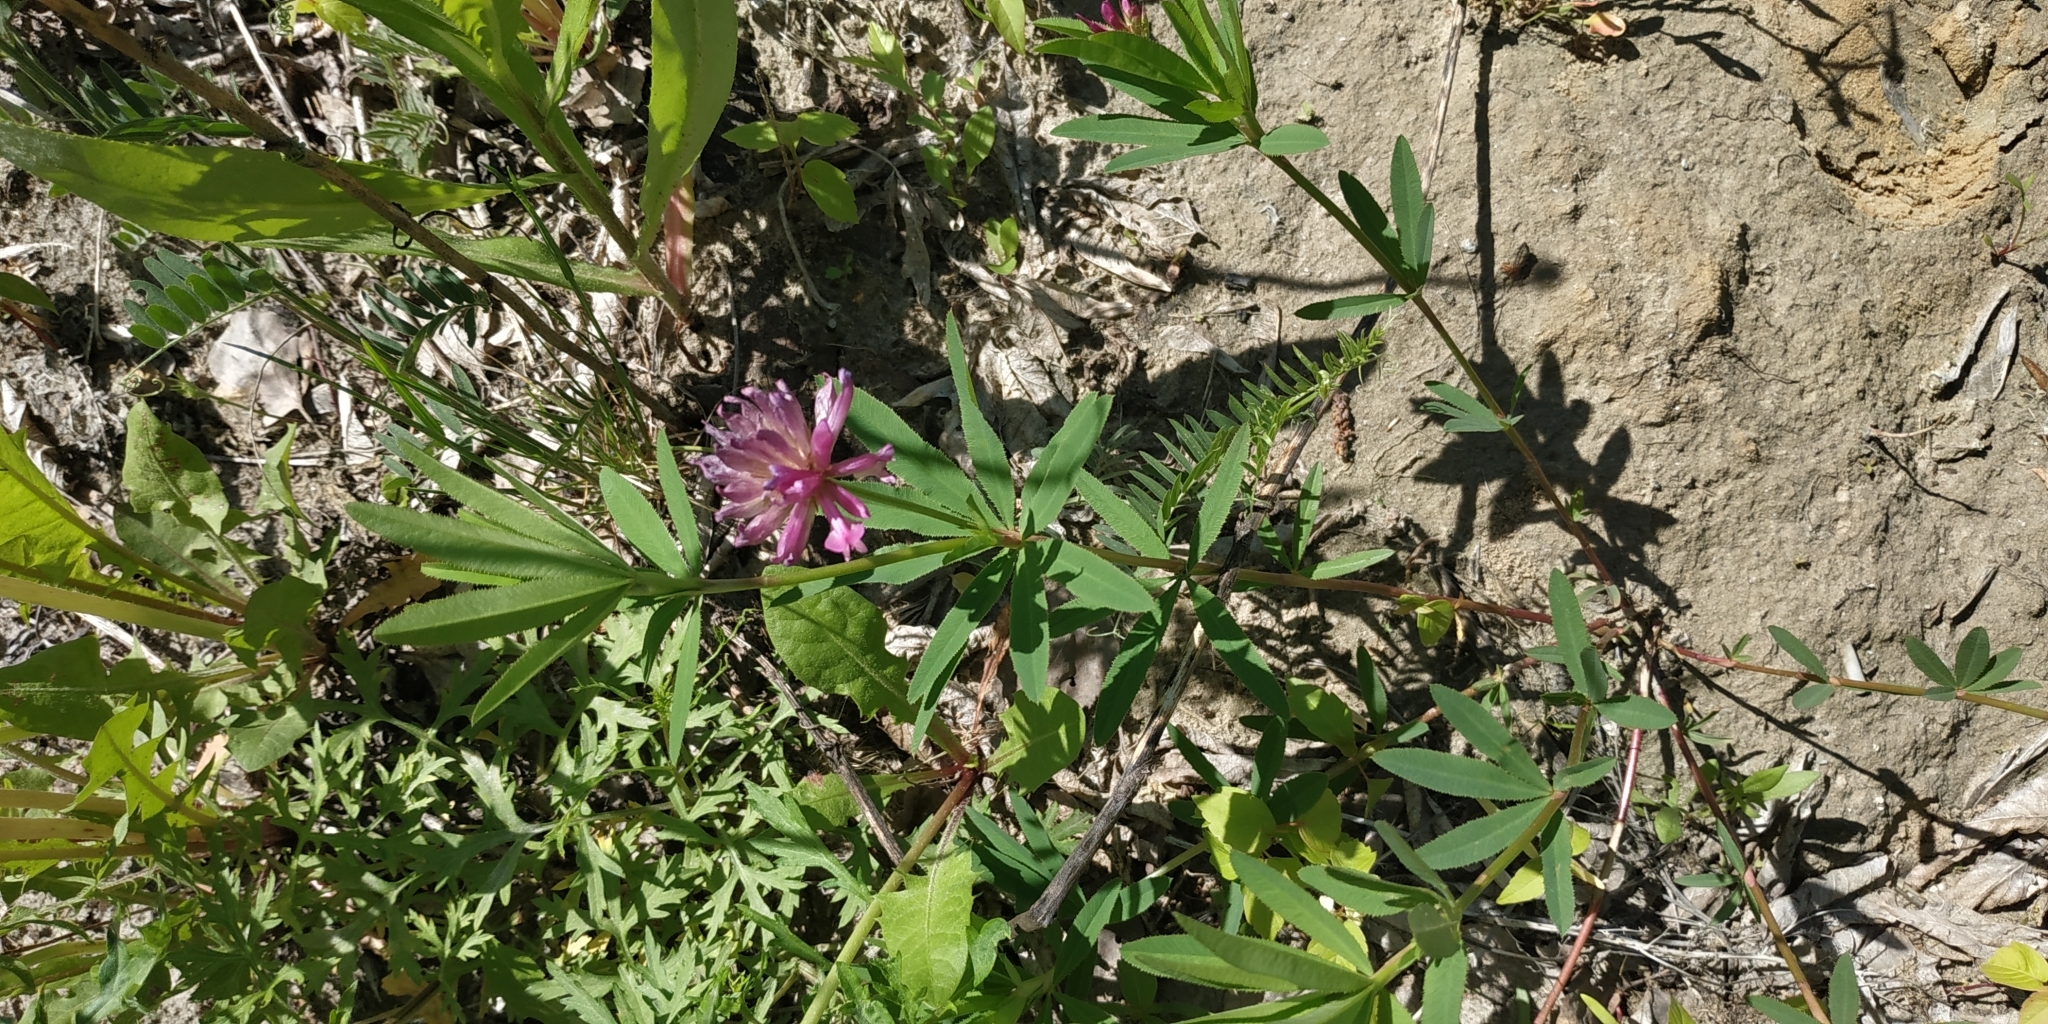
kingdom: Plantae
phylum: Tracheophyta
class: Magnoliopsida
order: Fabales
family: Fabaceae
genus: Trifolium
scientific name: Trifolium lupinaster
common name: Lupine clover
